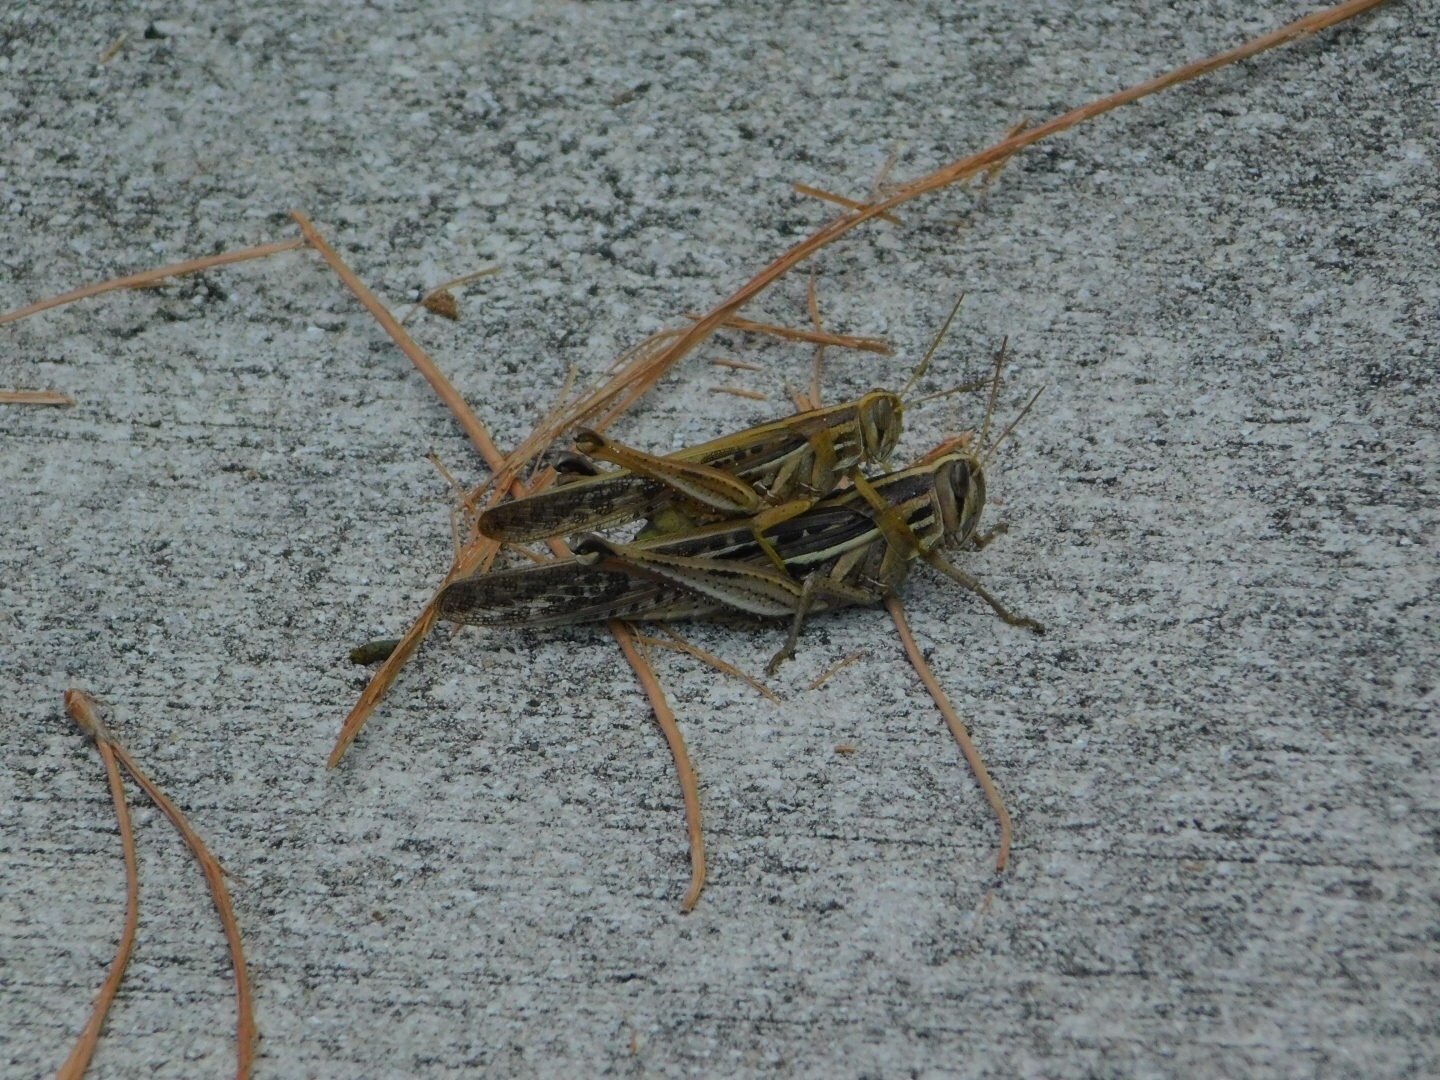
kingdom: Animalia
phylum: Arthropoda
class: Insecta
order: Orthoptera
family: Acrididae
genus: Schistocerca
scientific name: Schistocerca americana
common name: American bird locust
